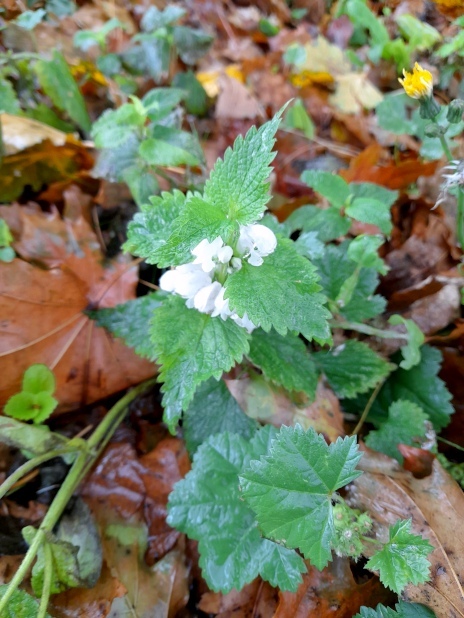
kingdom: Plantae
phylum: Tracheophyta
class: Magnoliopsida
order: Lamiales
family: Lamiaceae
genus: Lamium
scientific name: Lamium album
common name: White dead-nettle
